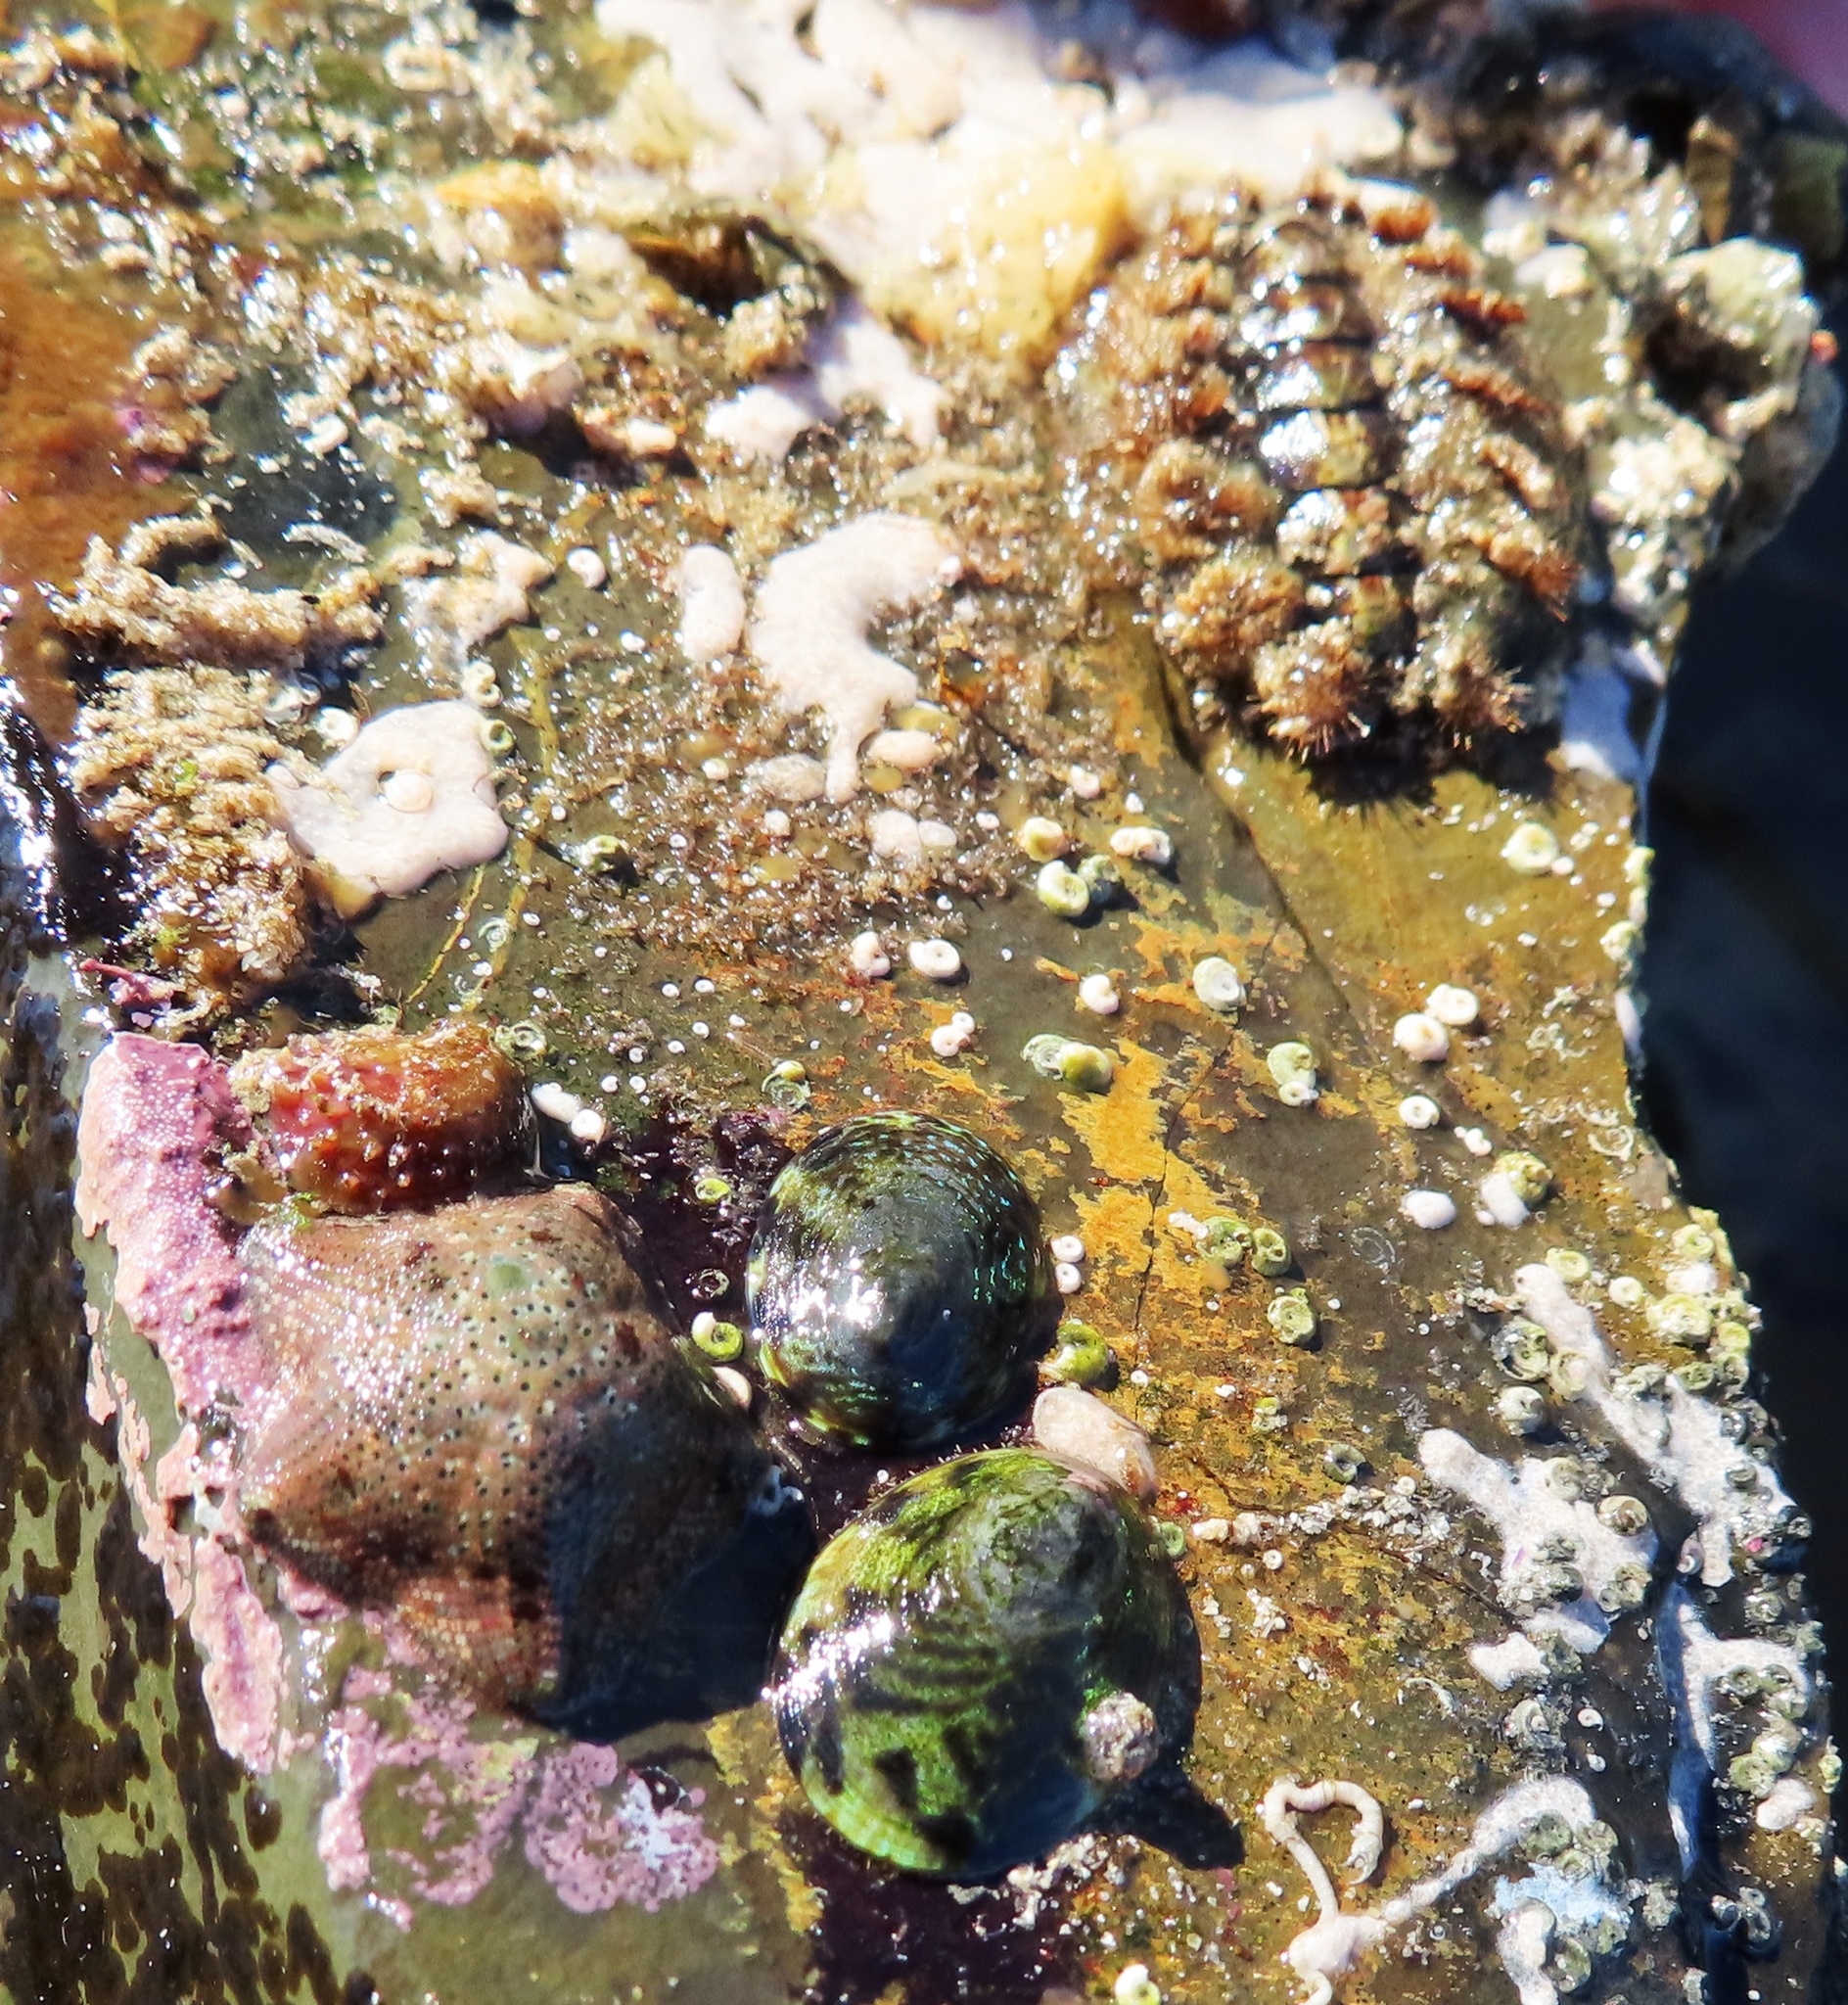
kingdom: Animalia
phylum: Mollusca
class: Polyplacophora
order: Chitonida
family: Acanthochitonidae
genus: Acanthochitona
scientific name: Acanthochitona garnoti
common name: Spiny chiton
